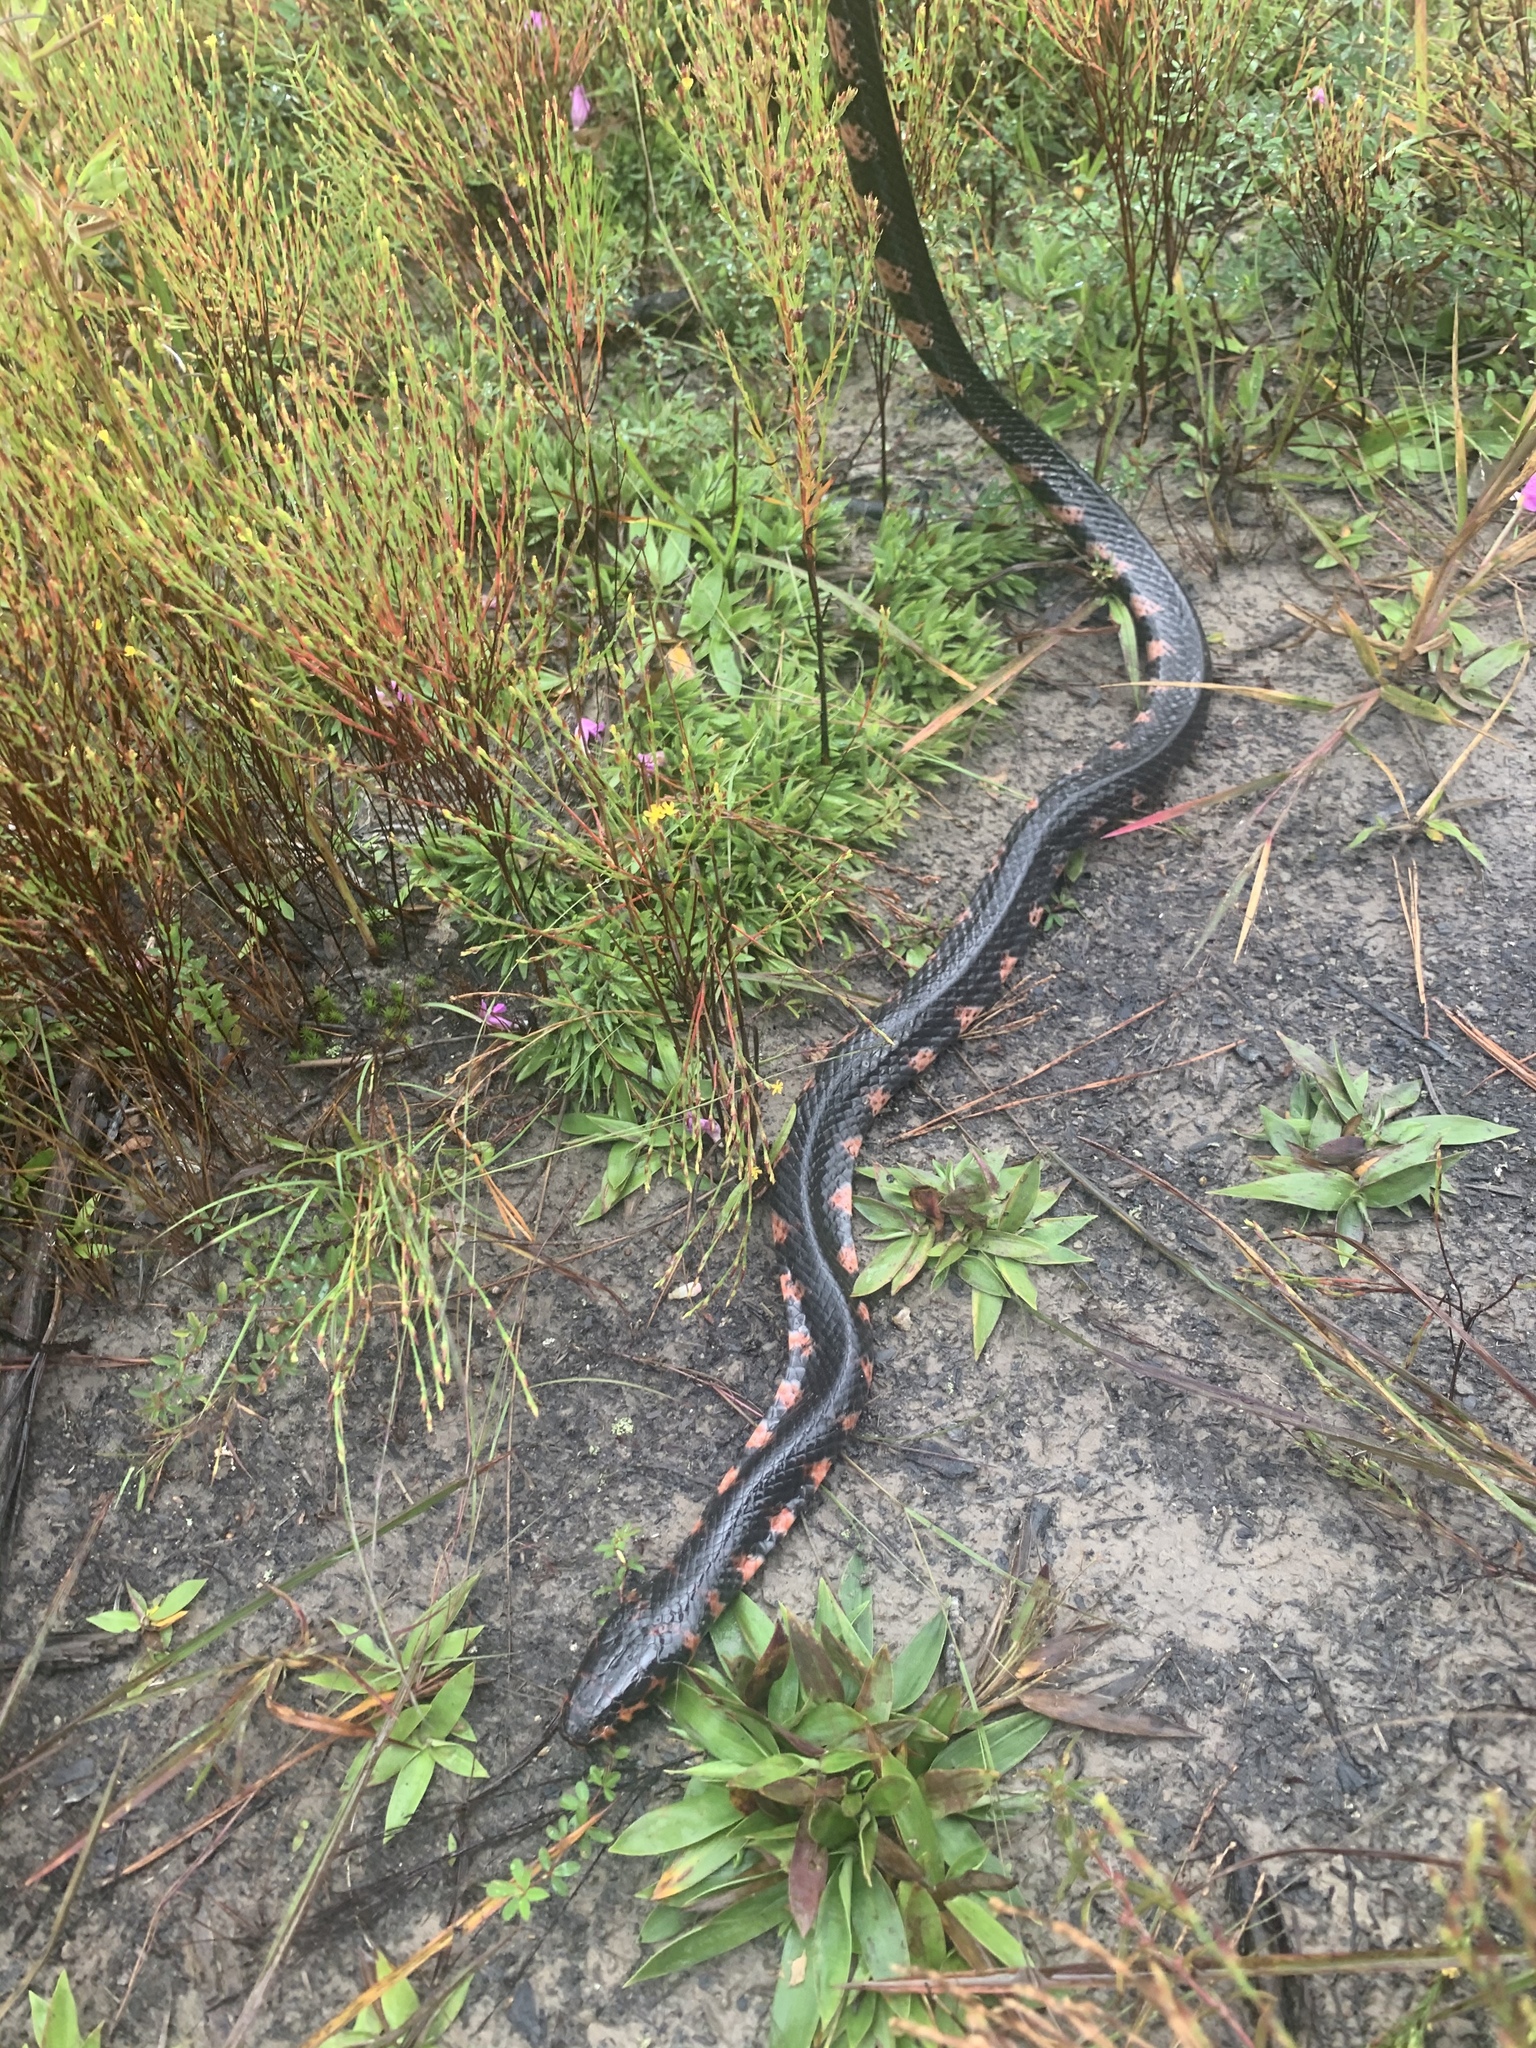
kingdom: Animalia
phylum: Chordata
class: Squamata
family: Colubridae
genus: Farancia
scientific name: Farancia abacura
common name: Mud snake
